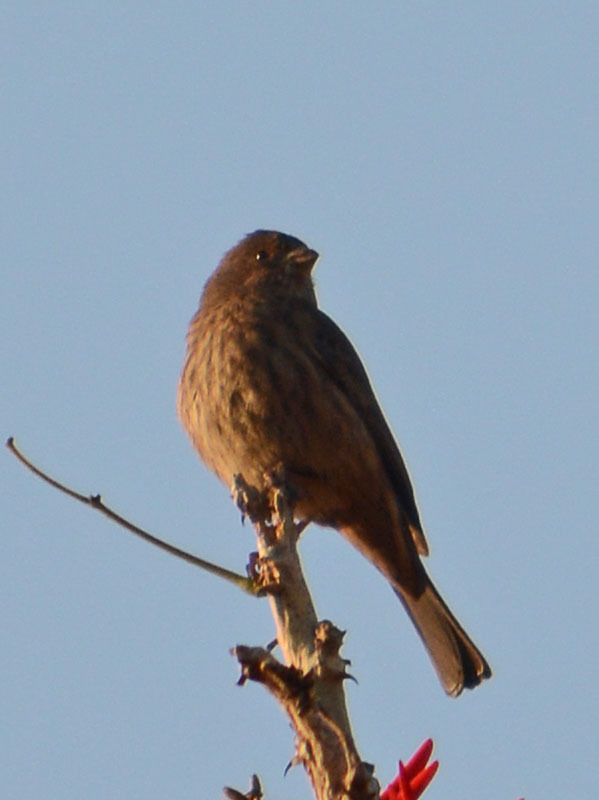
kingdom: Animalia
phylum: Chordata
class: Aves
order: Passeriformes
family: Fringillidae
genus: Haemorhous
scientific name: Haemorhous mexicanus
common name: House finch
